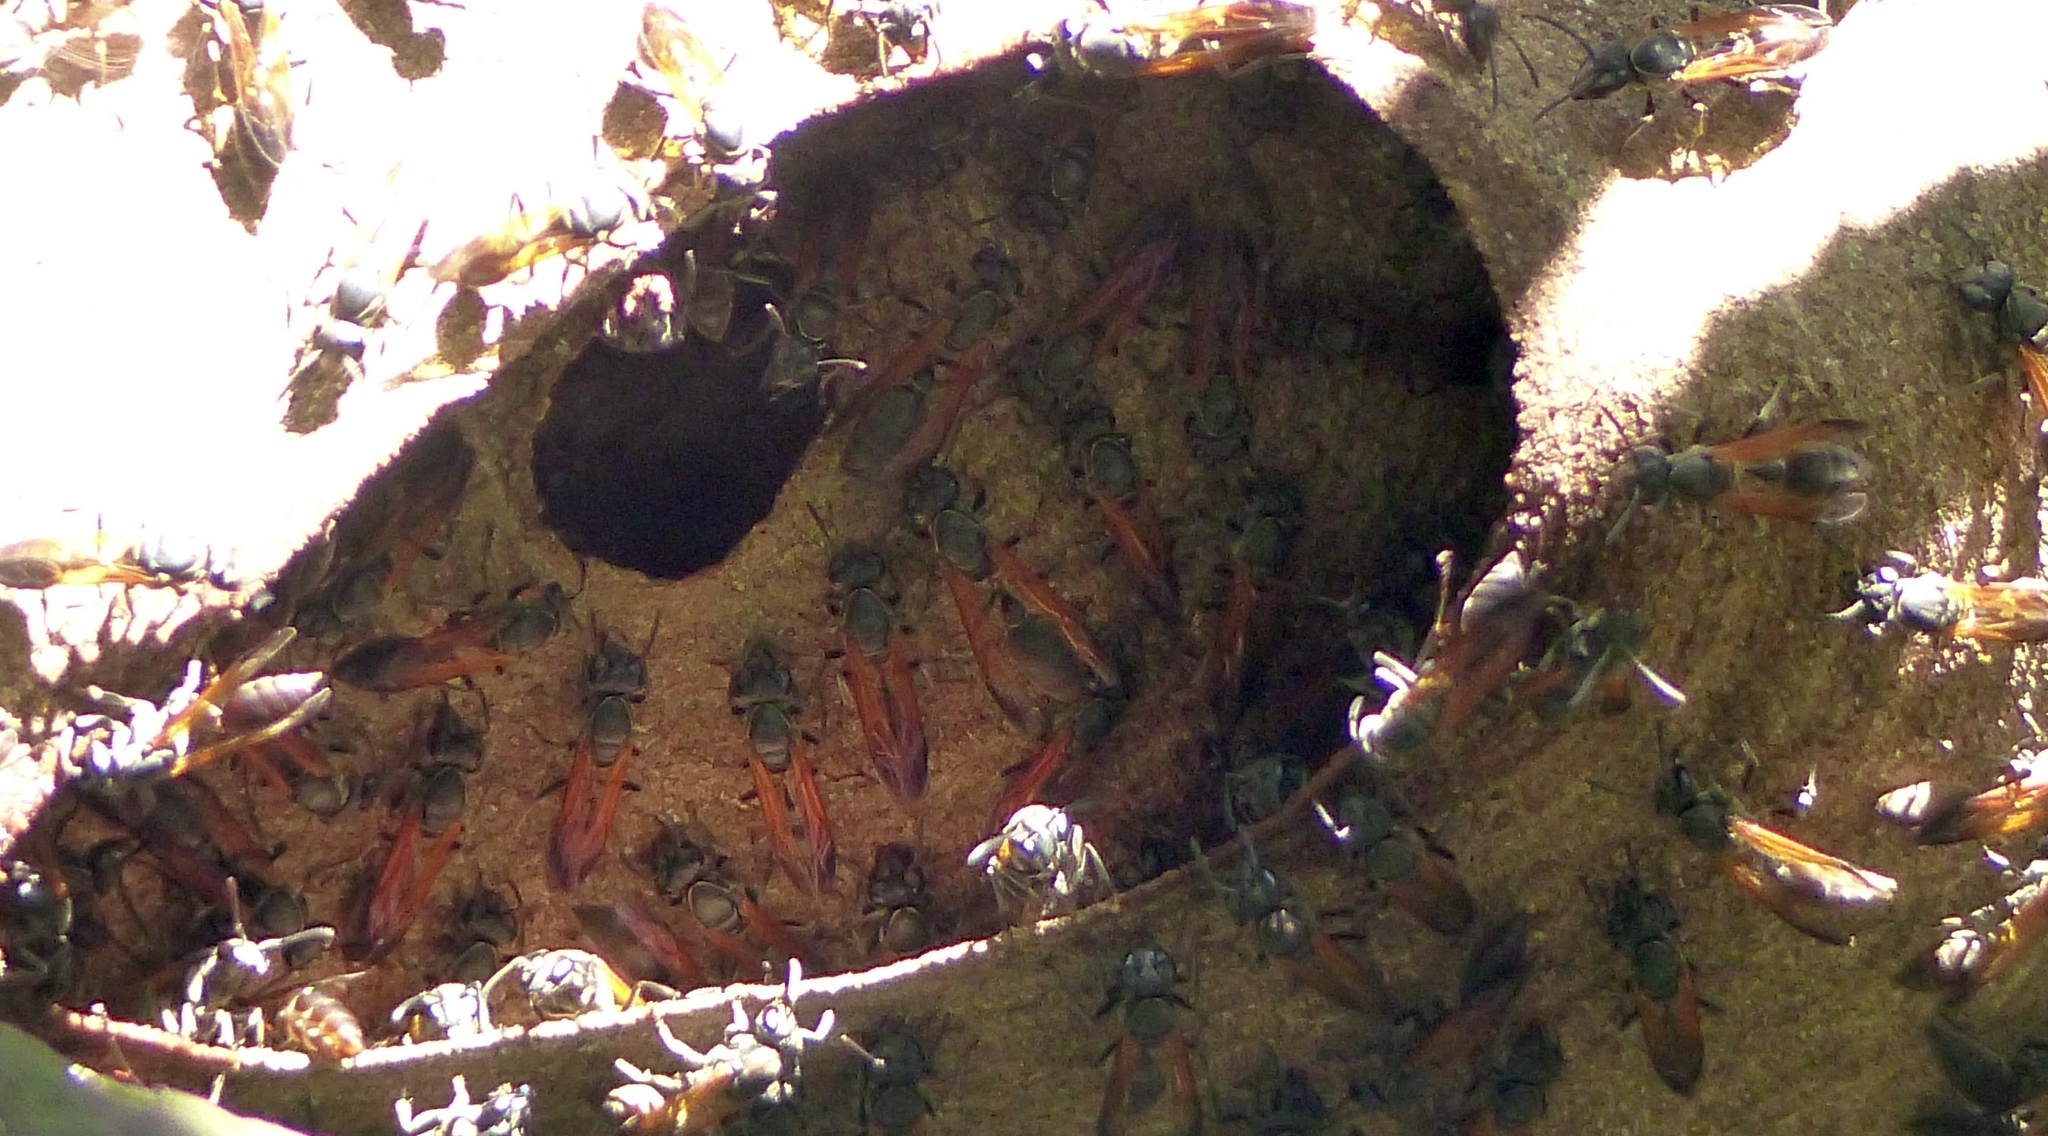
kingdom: Animalia
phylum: Arthropoda
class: Insecta
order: Hymenoptera
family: Eumenidae
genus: Polybia
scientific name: Polybia rejecta
